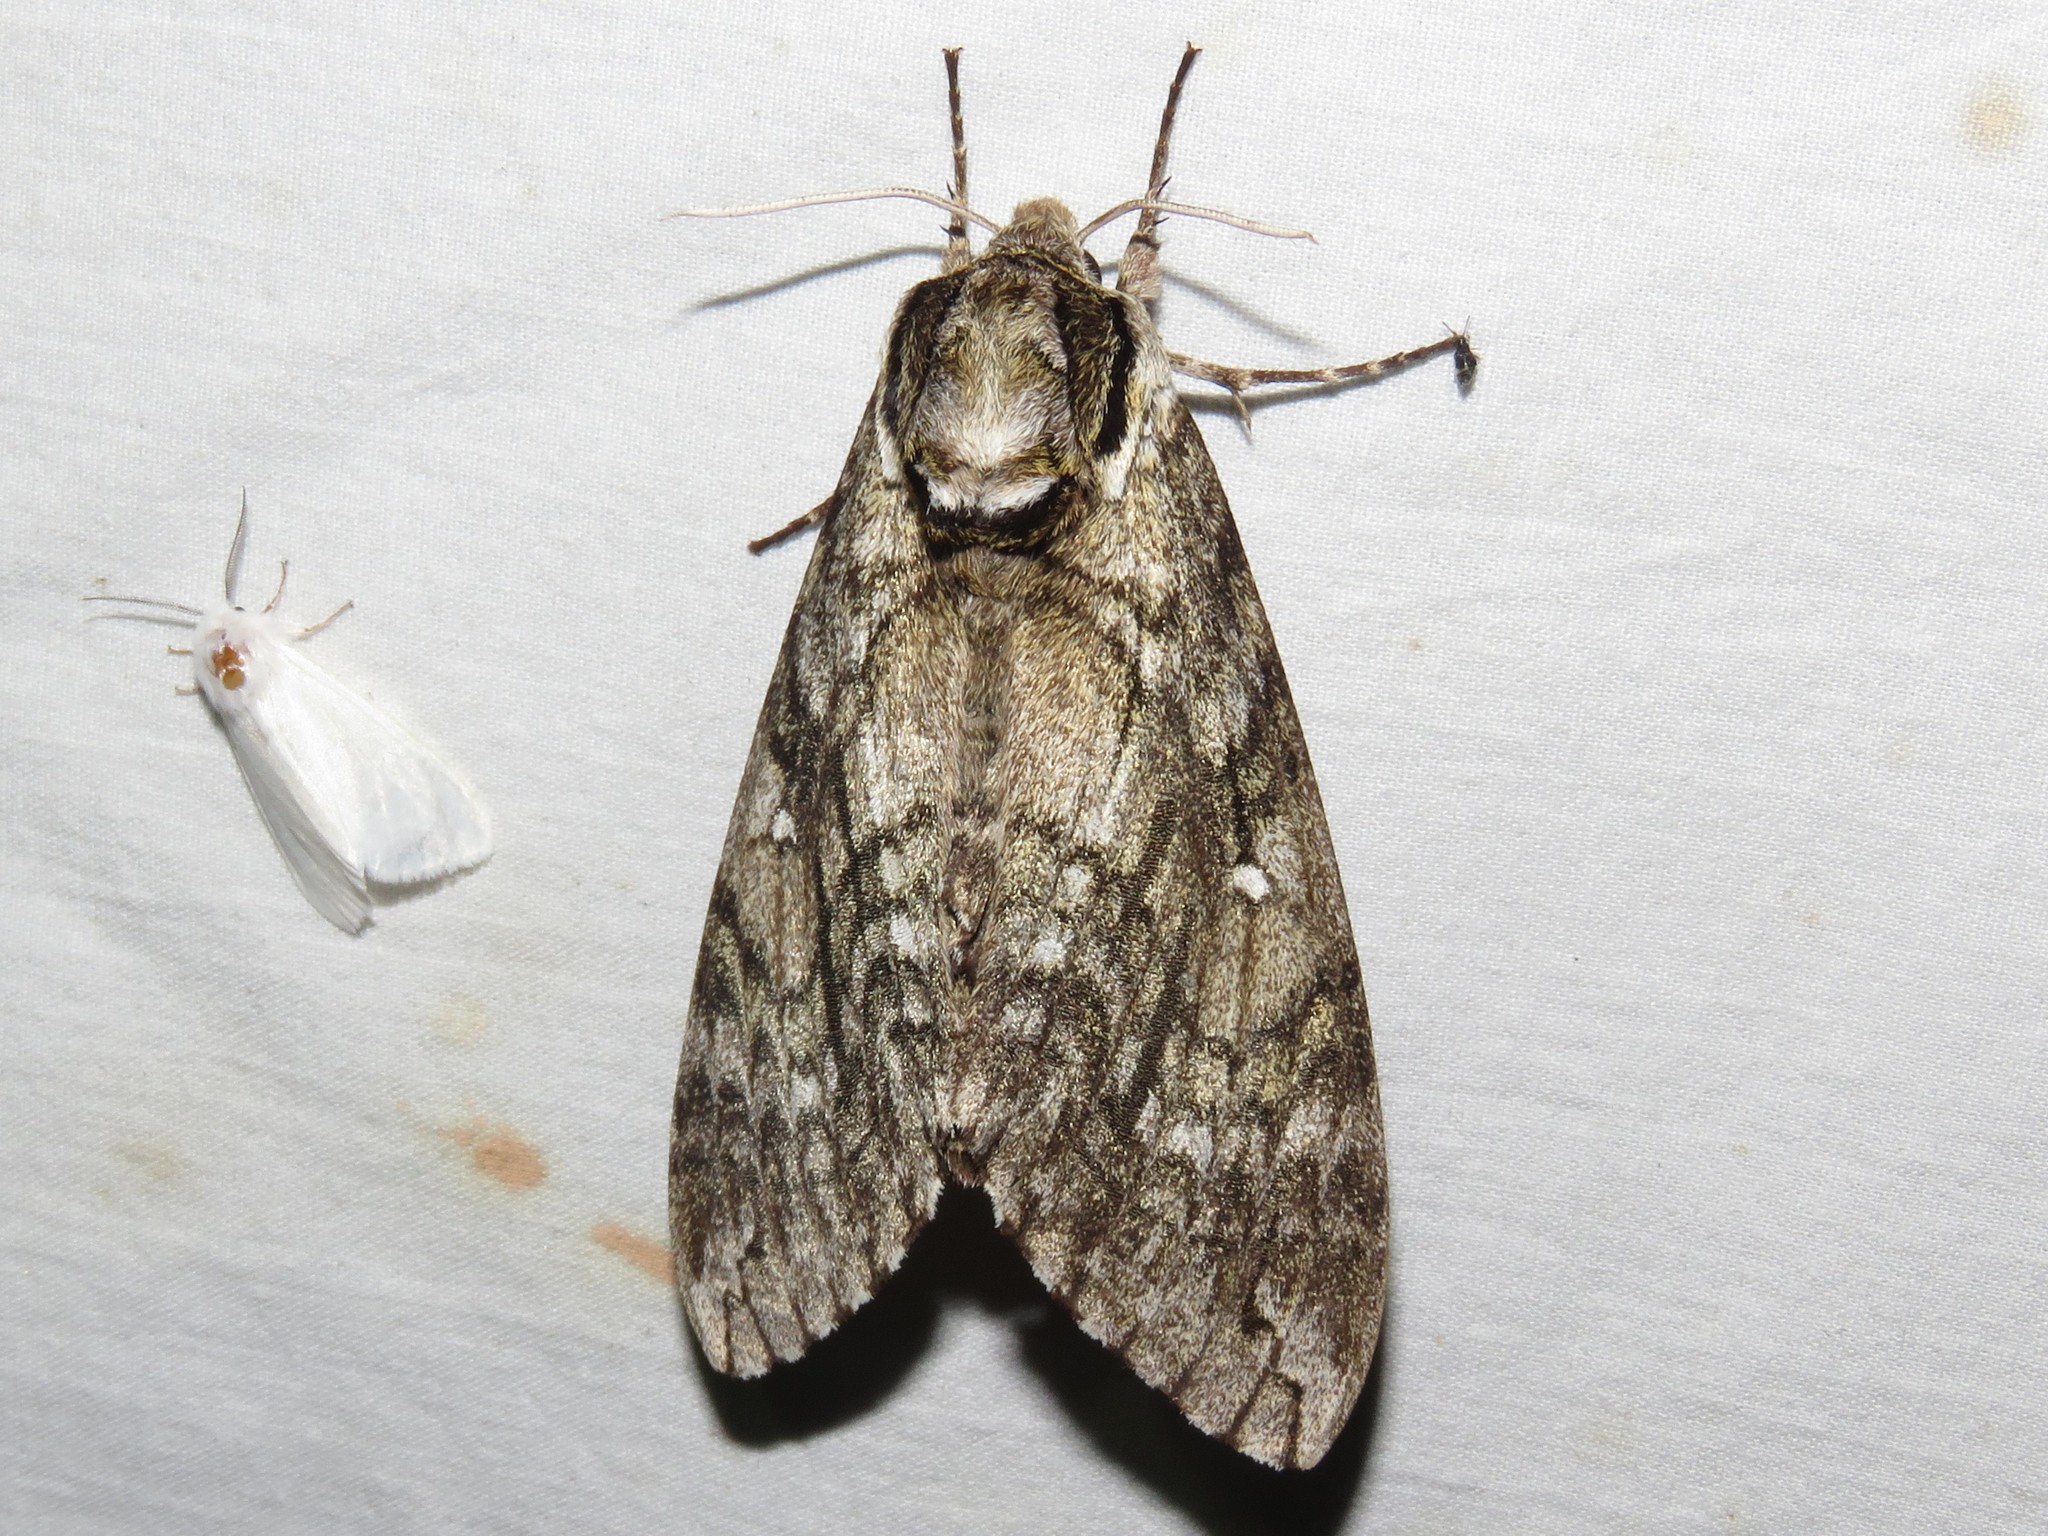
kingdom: Animalia
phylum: Arthropoda
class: Insecta
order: Lepidoptera
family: Sphingidae
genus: Ceratomia
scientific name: Ceratomia undulosa
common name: Waved sphinx
